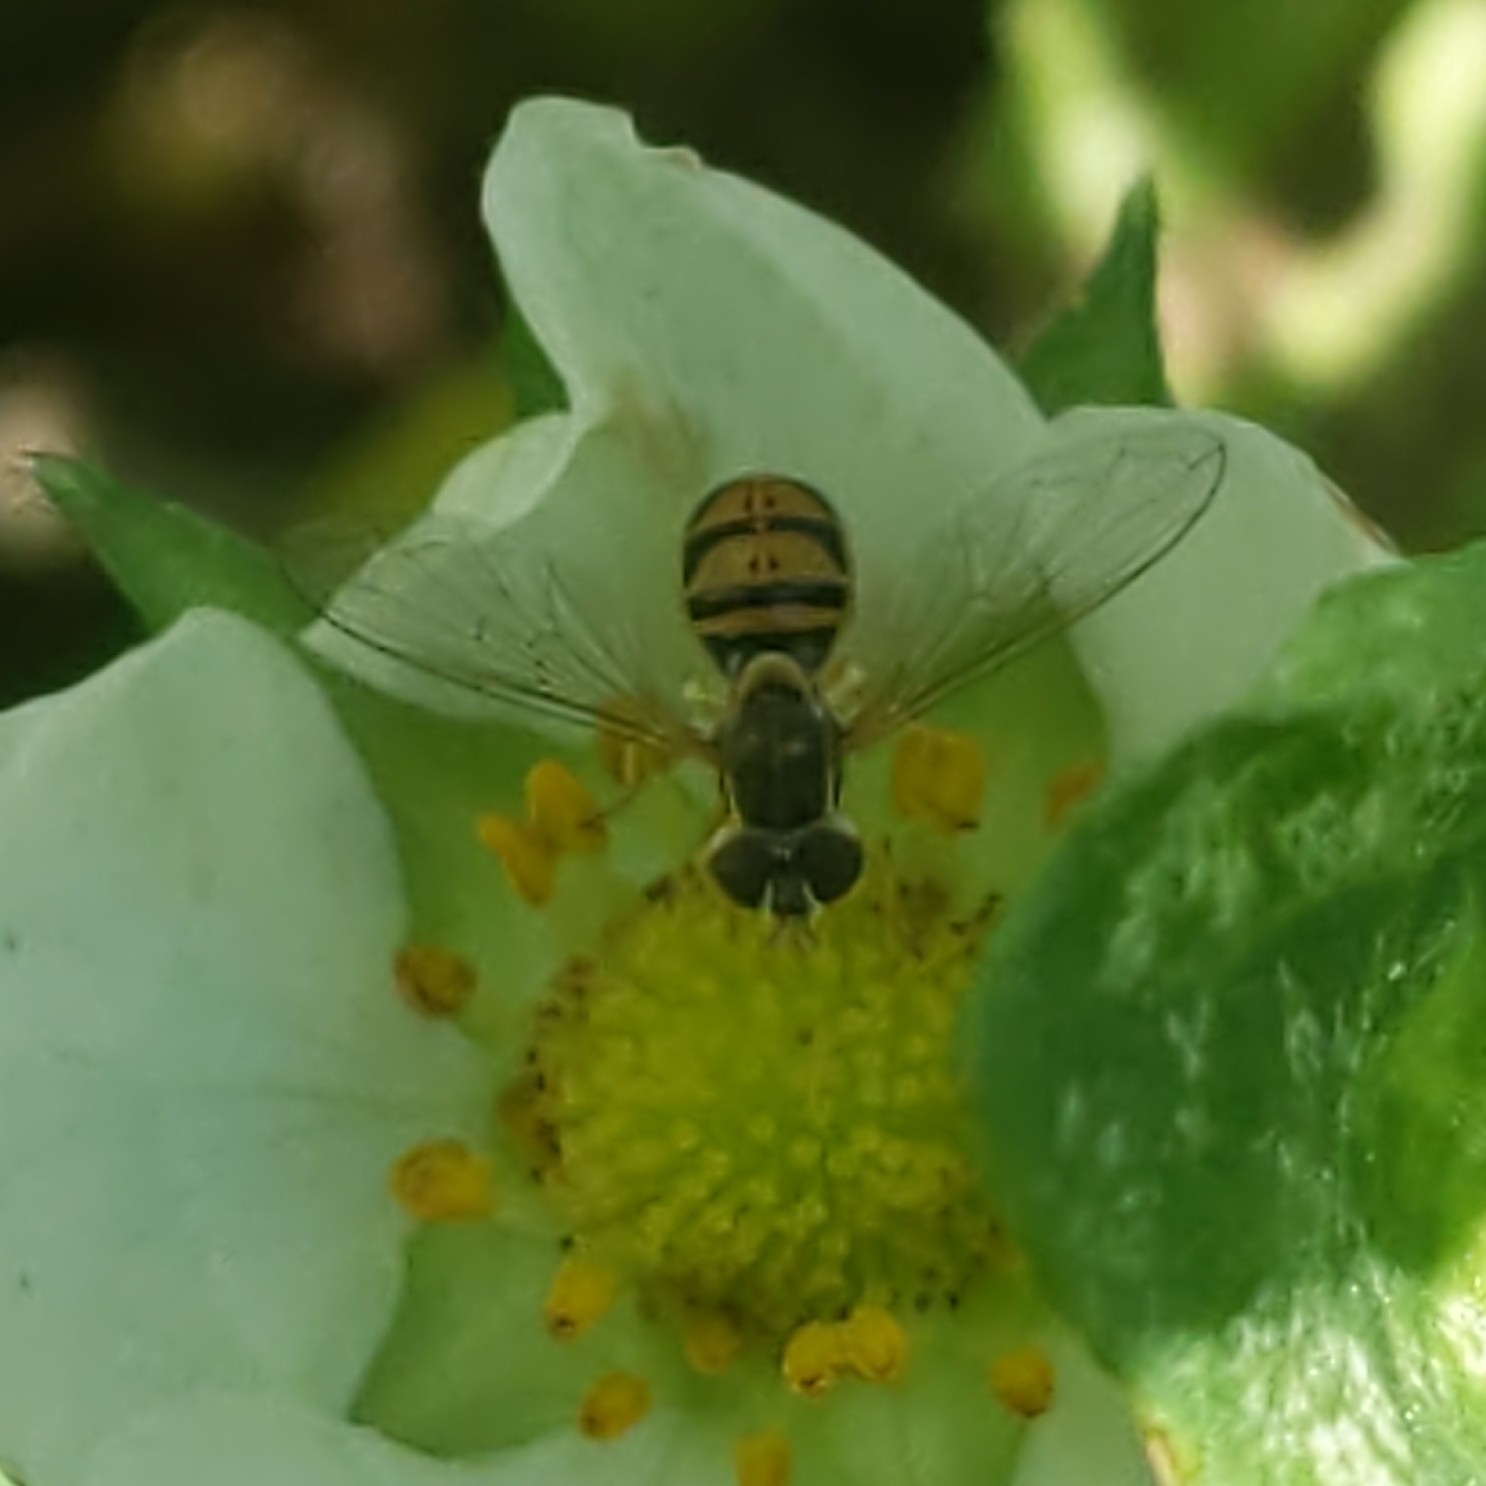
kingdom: Animalia
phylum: Arthropoda
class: Insecta
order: Diptera
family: Syrphidae
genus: Toxomerus
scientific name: Toxomerus marginatus
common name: Syrphid fly
